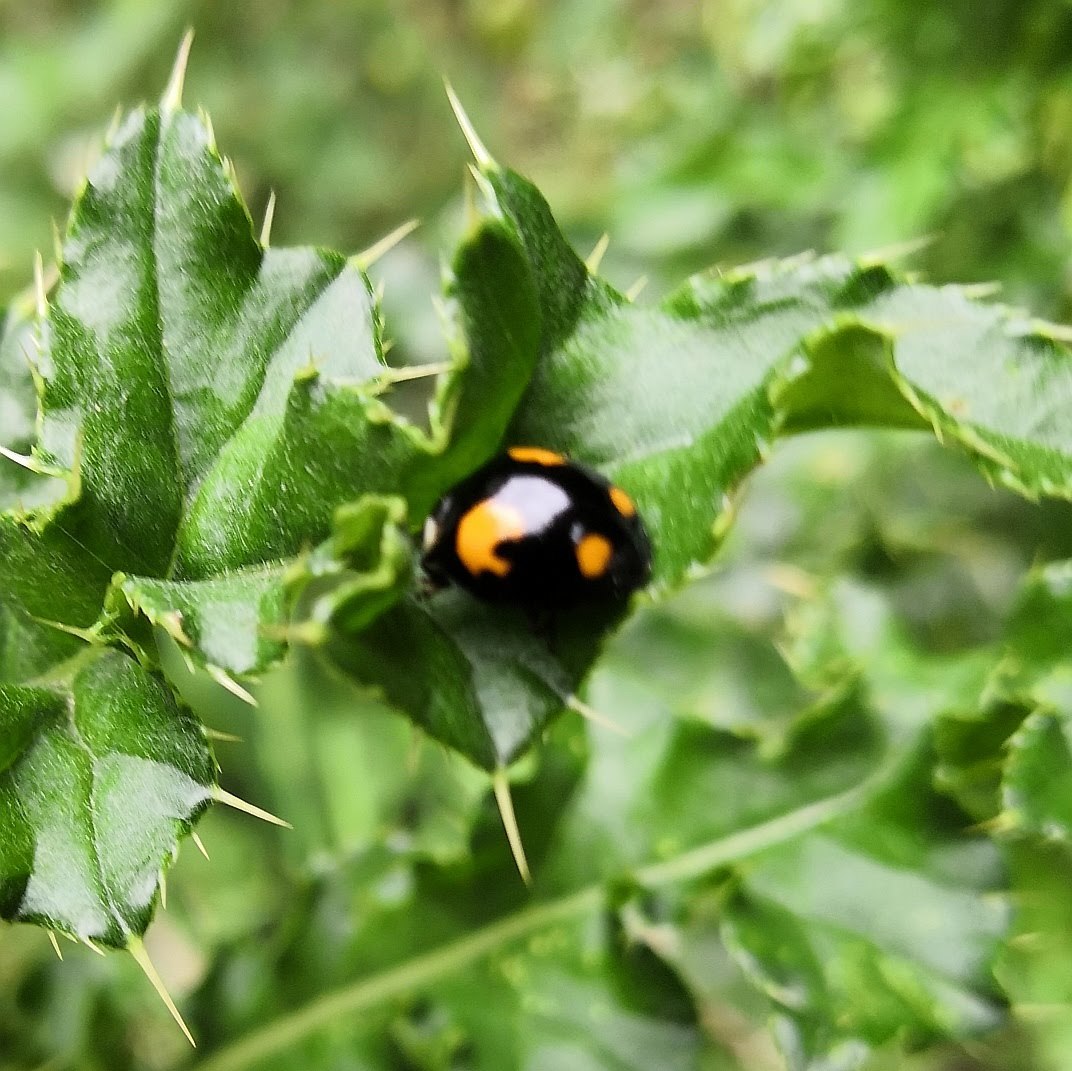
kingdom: Animalia
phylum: Arthropoda
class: Insecta
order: Coleoptera
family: Coccinellidae
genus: Harmonia
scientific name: Harmonia axyridis
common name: Harlequin ladybird
